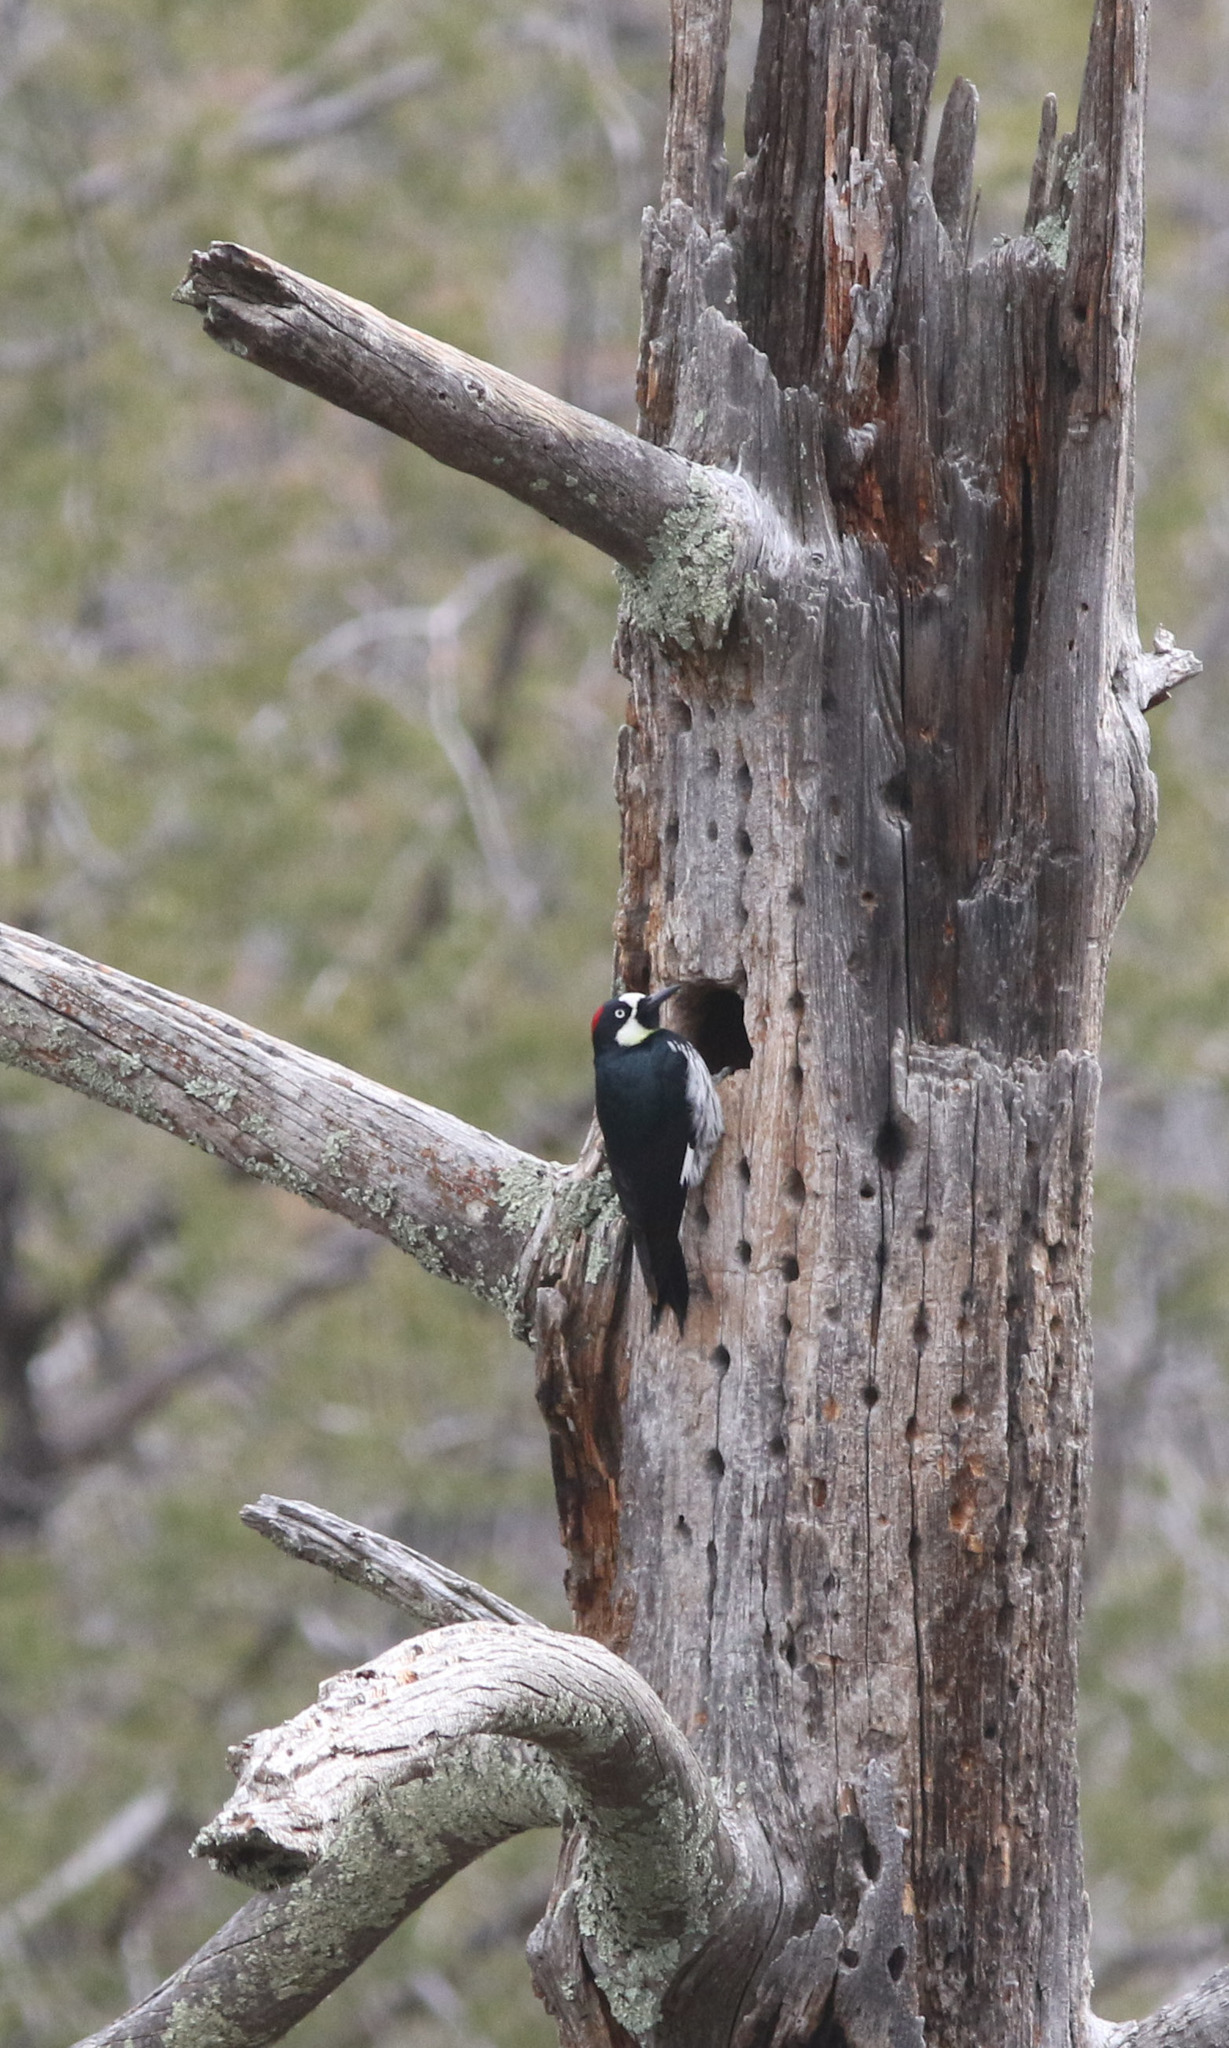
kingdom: Animalia
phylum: Chordata
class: Aves
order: Piciformes
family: Picidae
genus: Melanerpes
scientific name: Melanerpes formicivorus
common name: Acorn woodpecker
